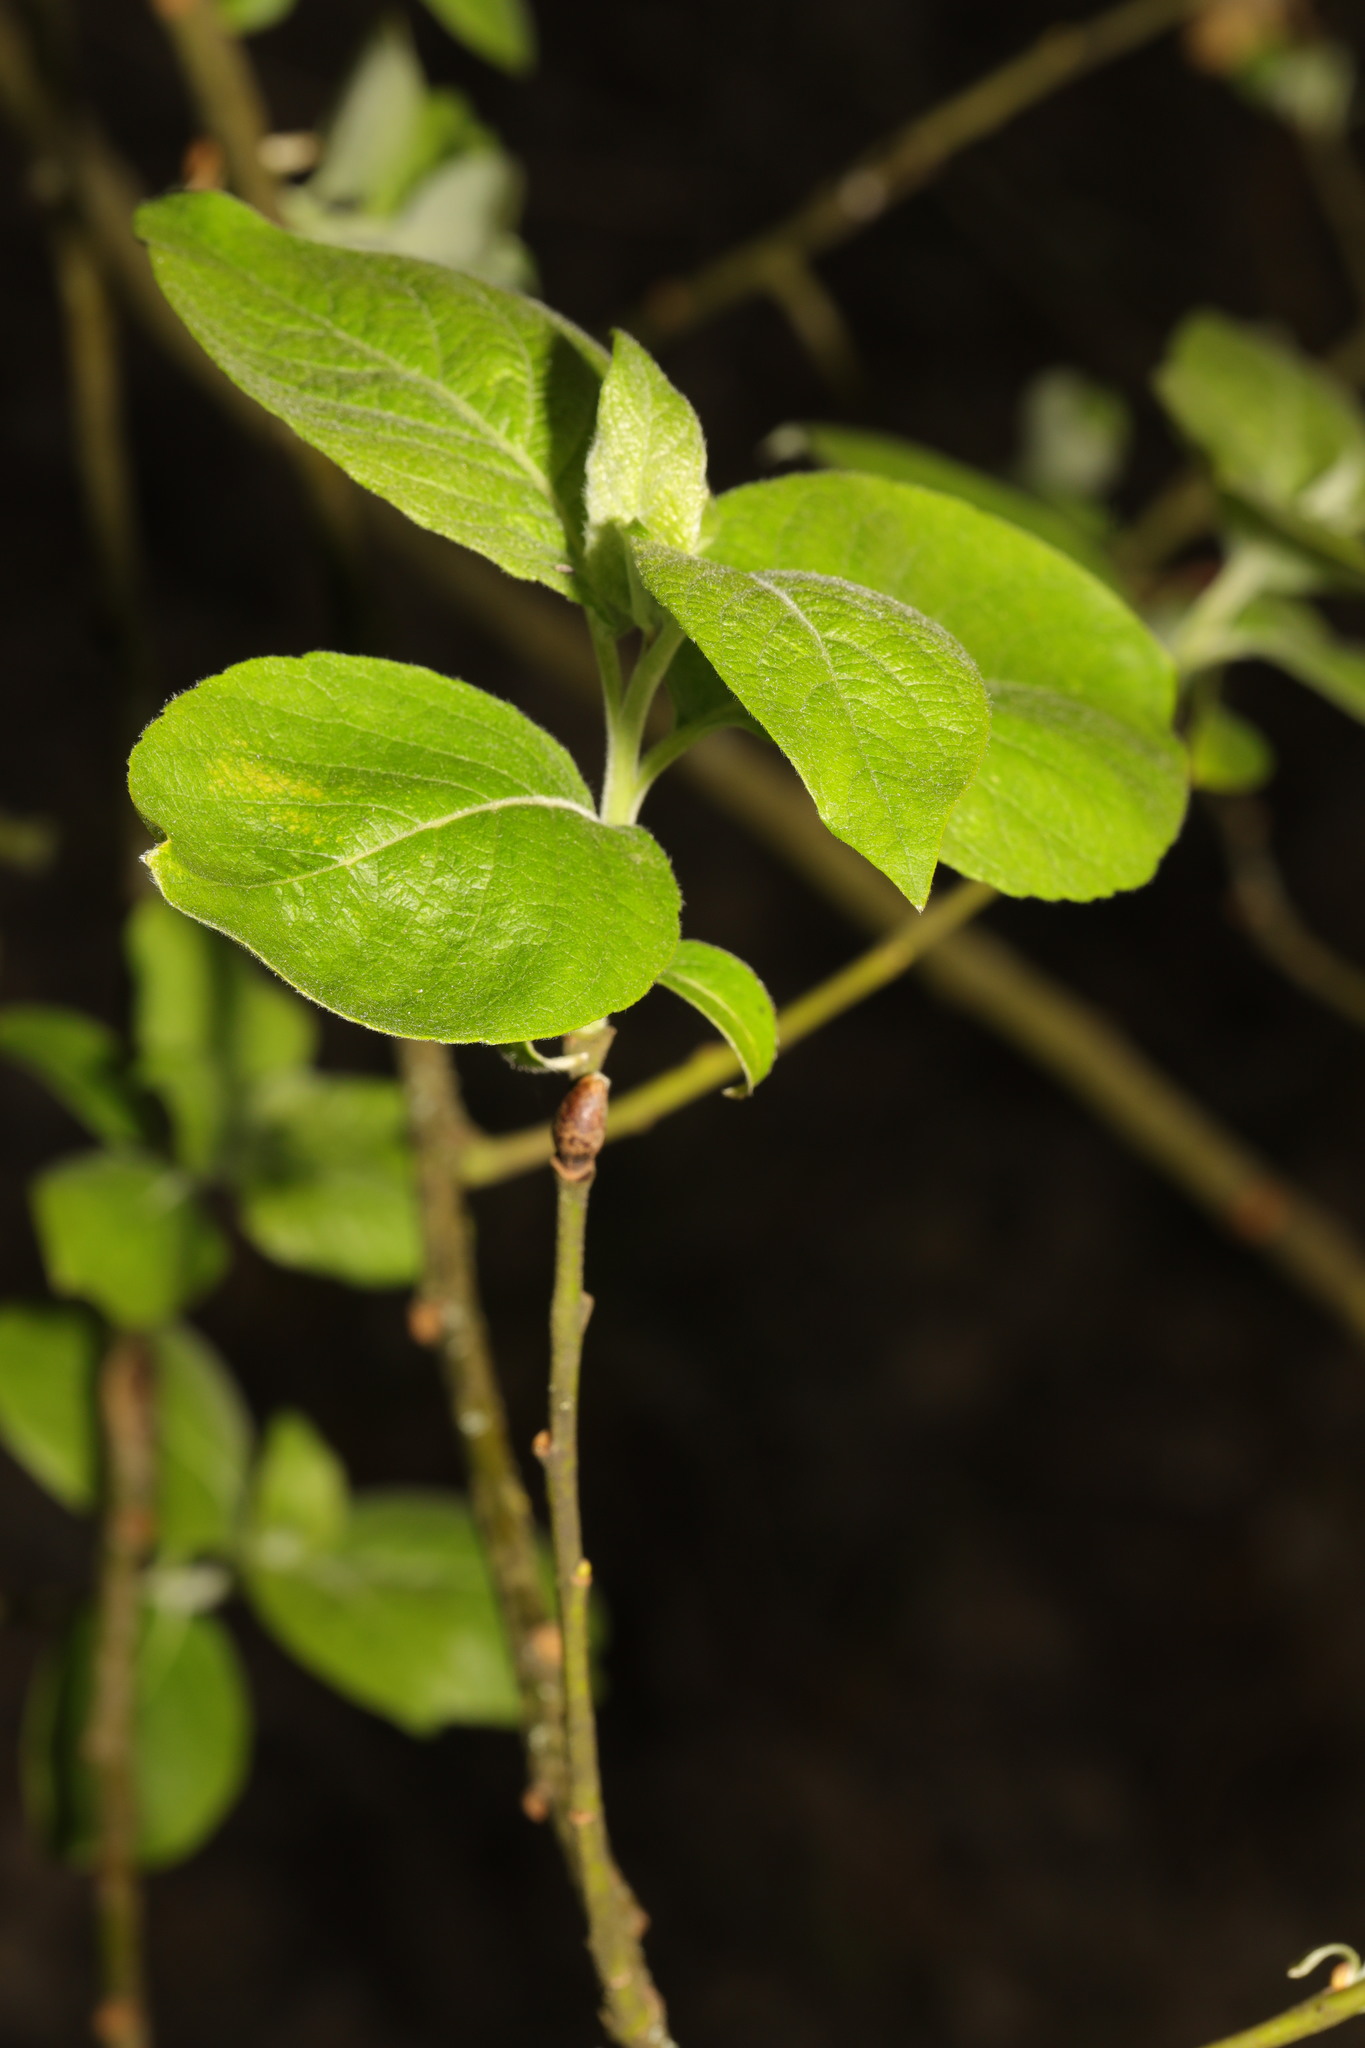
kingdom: Plantae
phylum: Tracheophyta
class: Magnoliopsida
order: Malpighiales
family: Salicaceae
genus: Salix
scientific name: Salix caprea
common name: Goat willow
